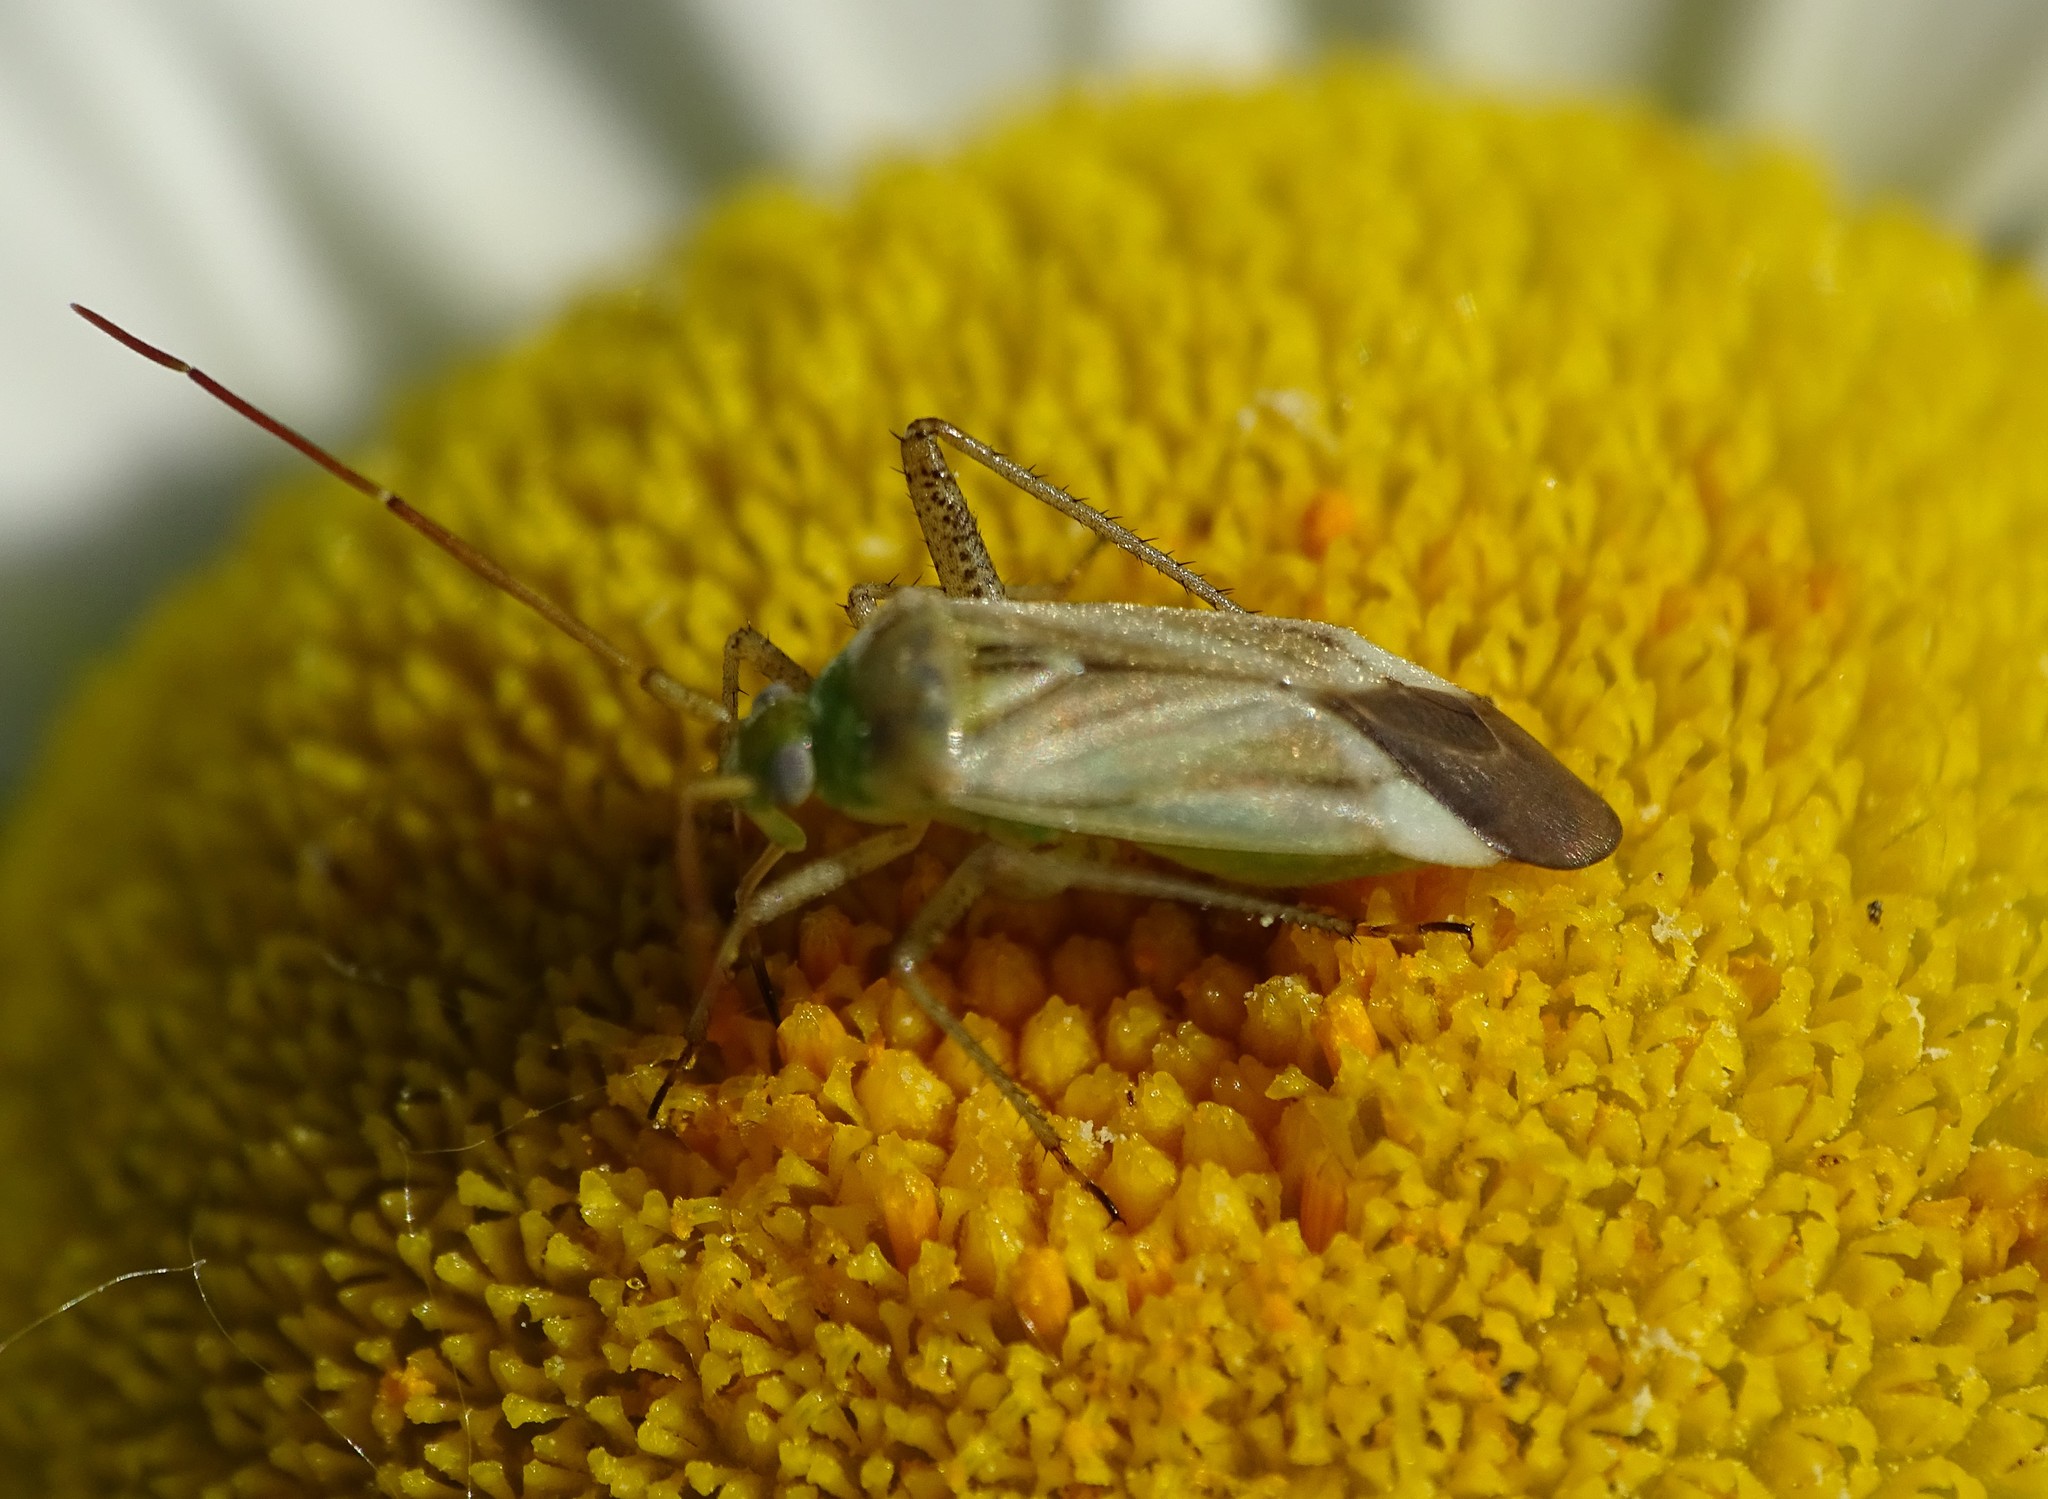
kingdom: Animalia
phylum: Arthropoda
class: Insecta
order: Hemiptera
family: Miridae
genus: Adelphocoris
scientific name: Adelphocoris lineolatus
